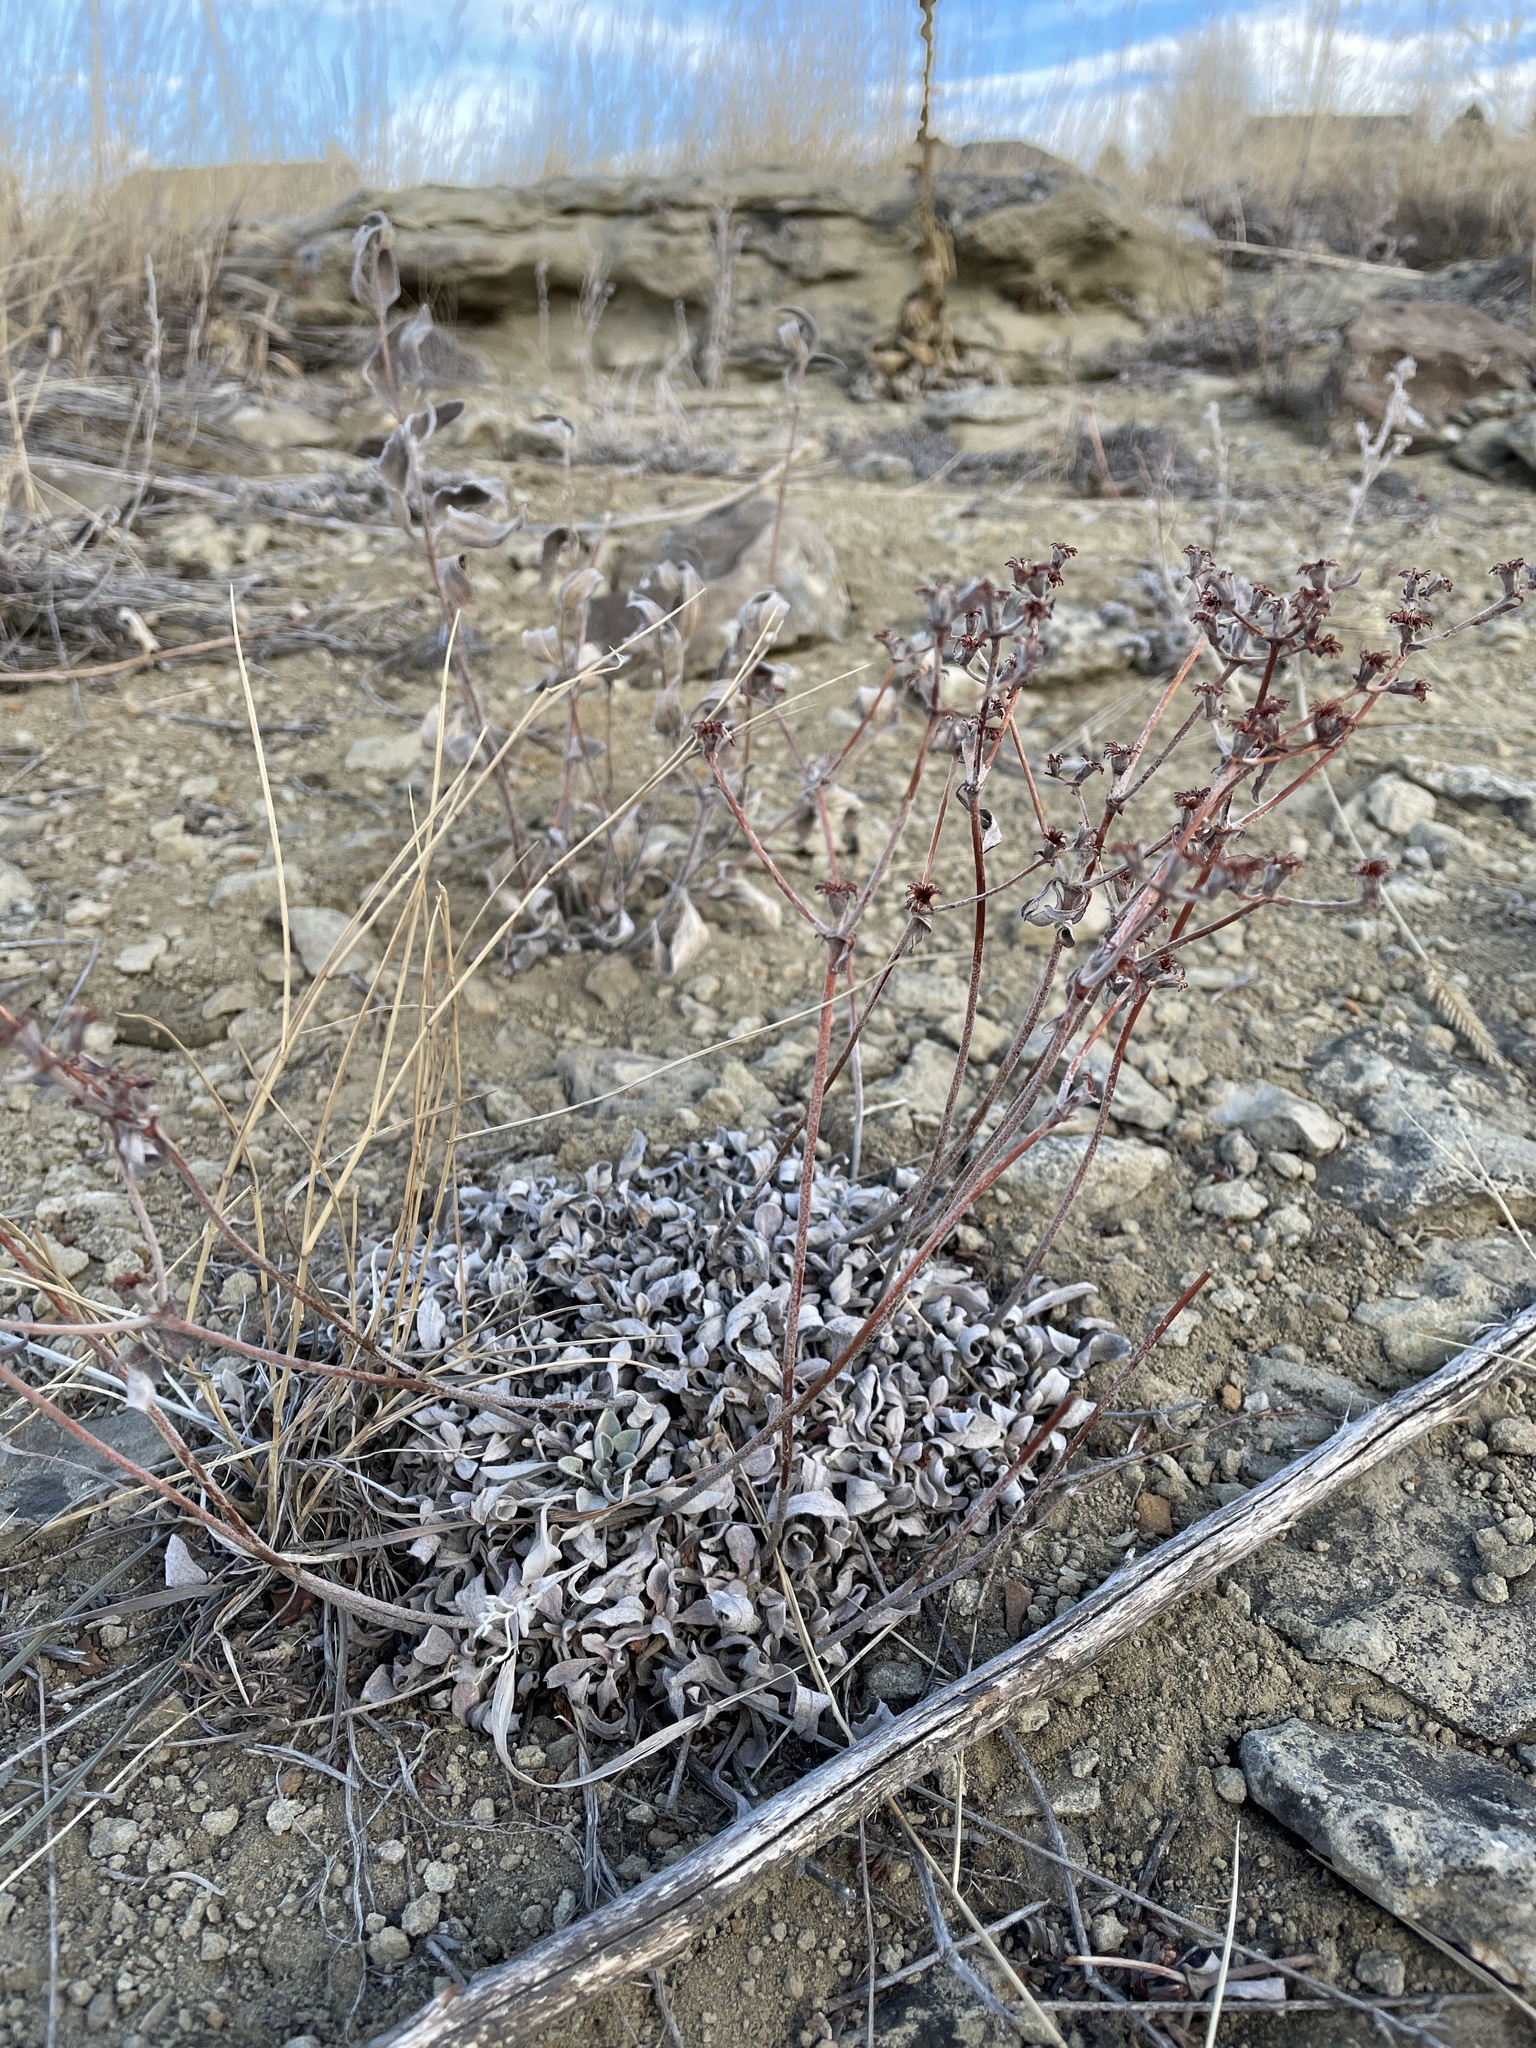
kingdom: Plantae
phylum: Tracheophyta
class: Magnoliopsida
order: Caryophyllales
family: Polygonaceae
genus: Eriogonum
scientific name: Eriogonum flavum
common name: Alpine golden wild buckwheat
